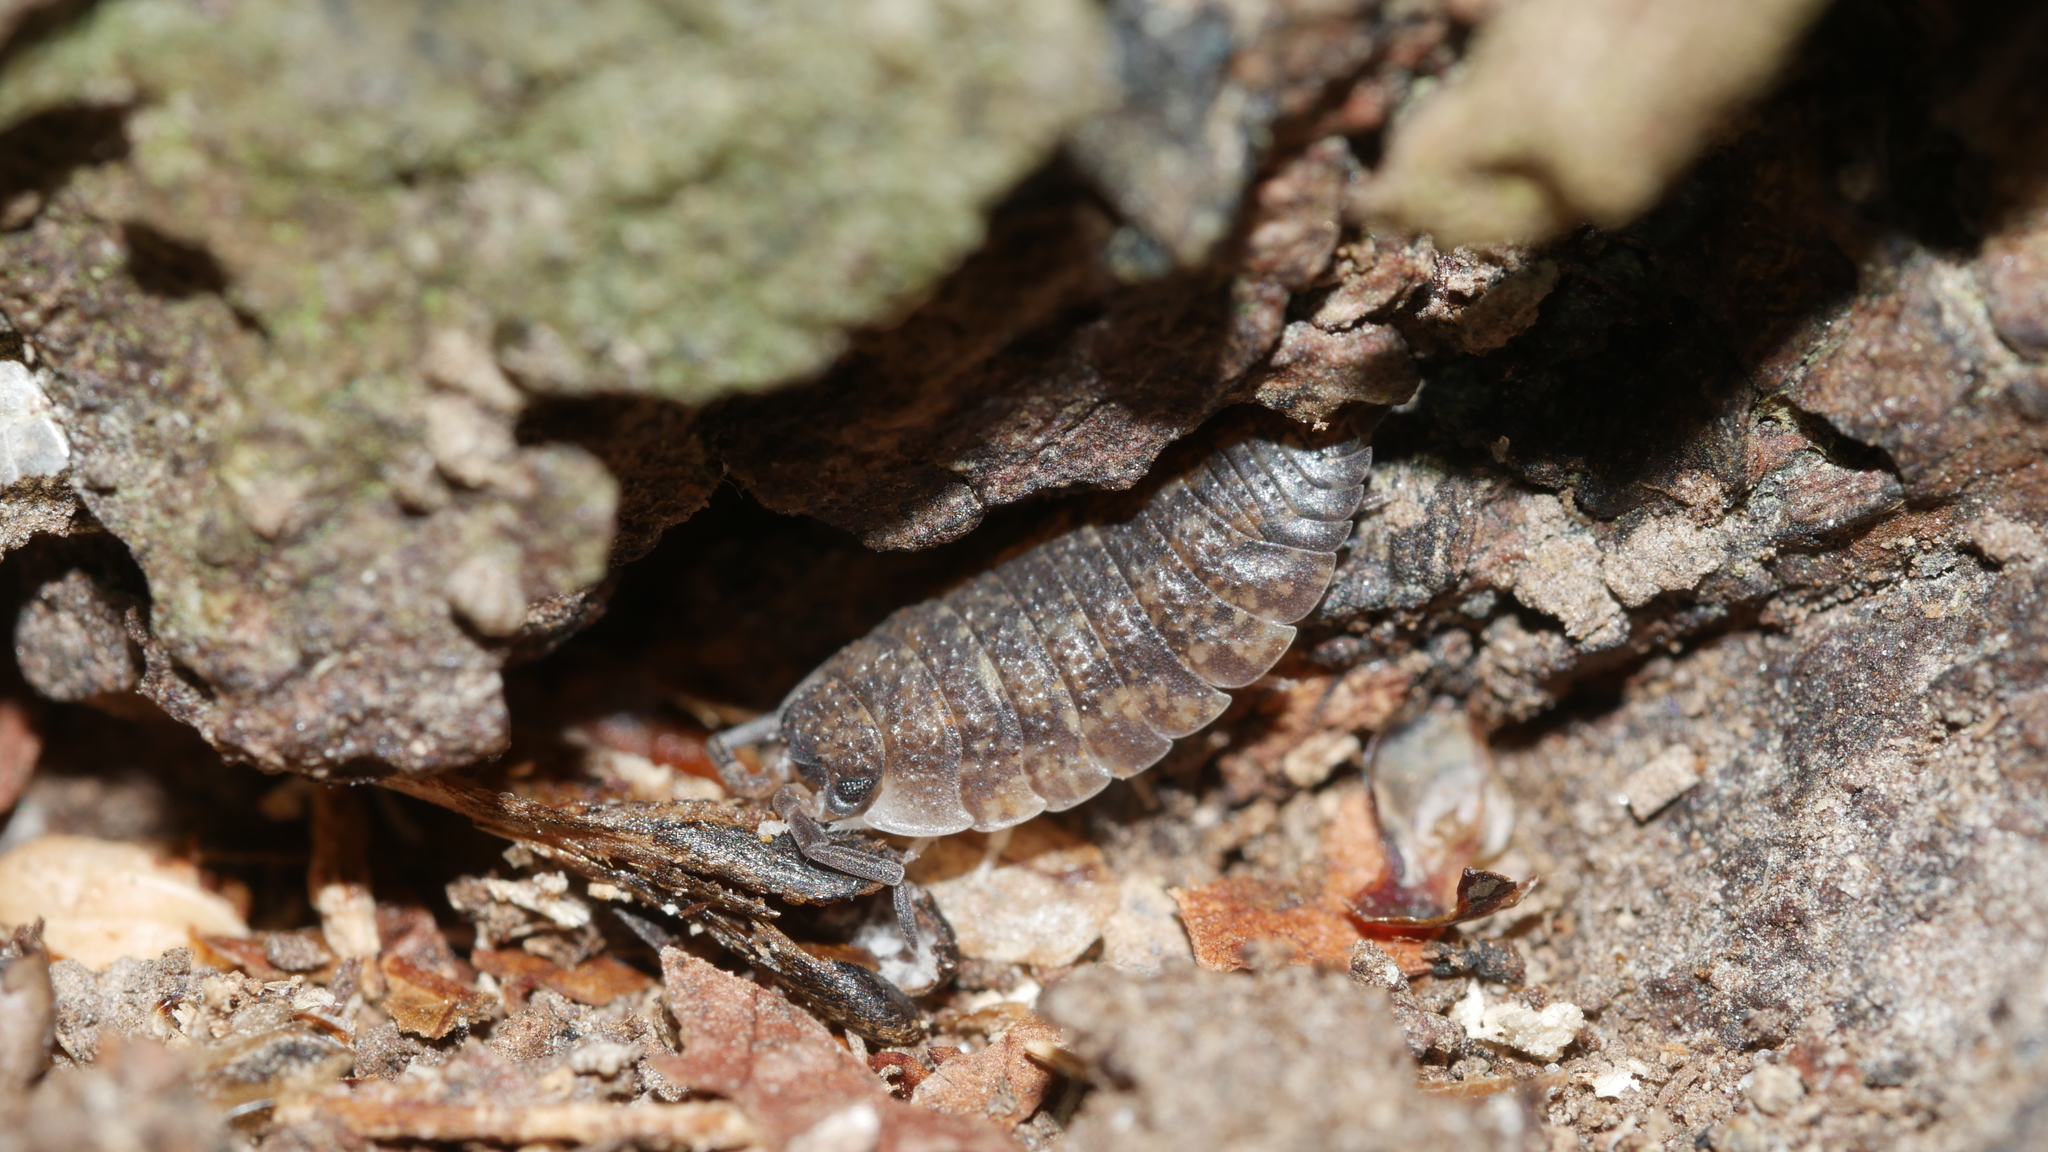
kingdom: Animalia
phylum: Arthropoda
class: Malacostraca
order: Isopoda
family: Porcellionidae
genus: Porcellio
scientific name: Porcellio scaber
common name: Common rough woodlouse
